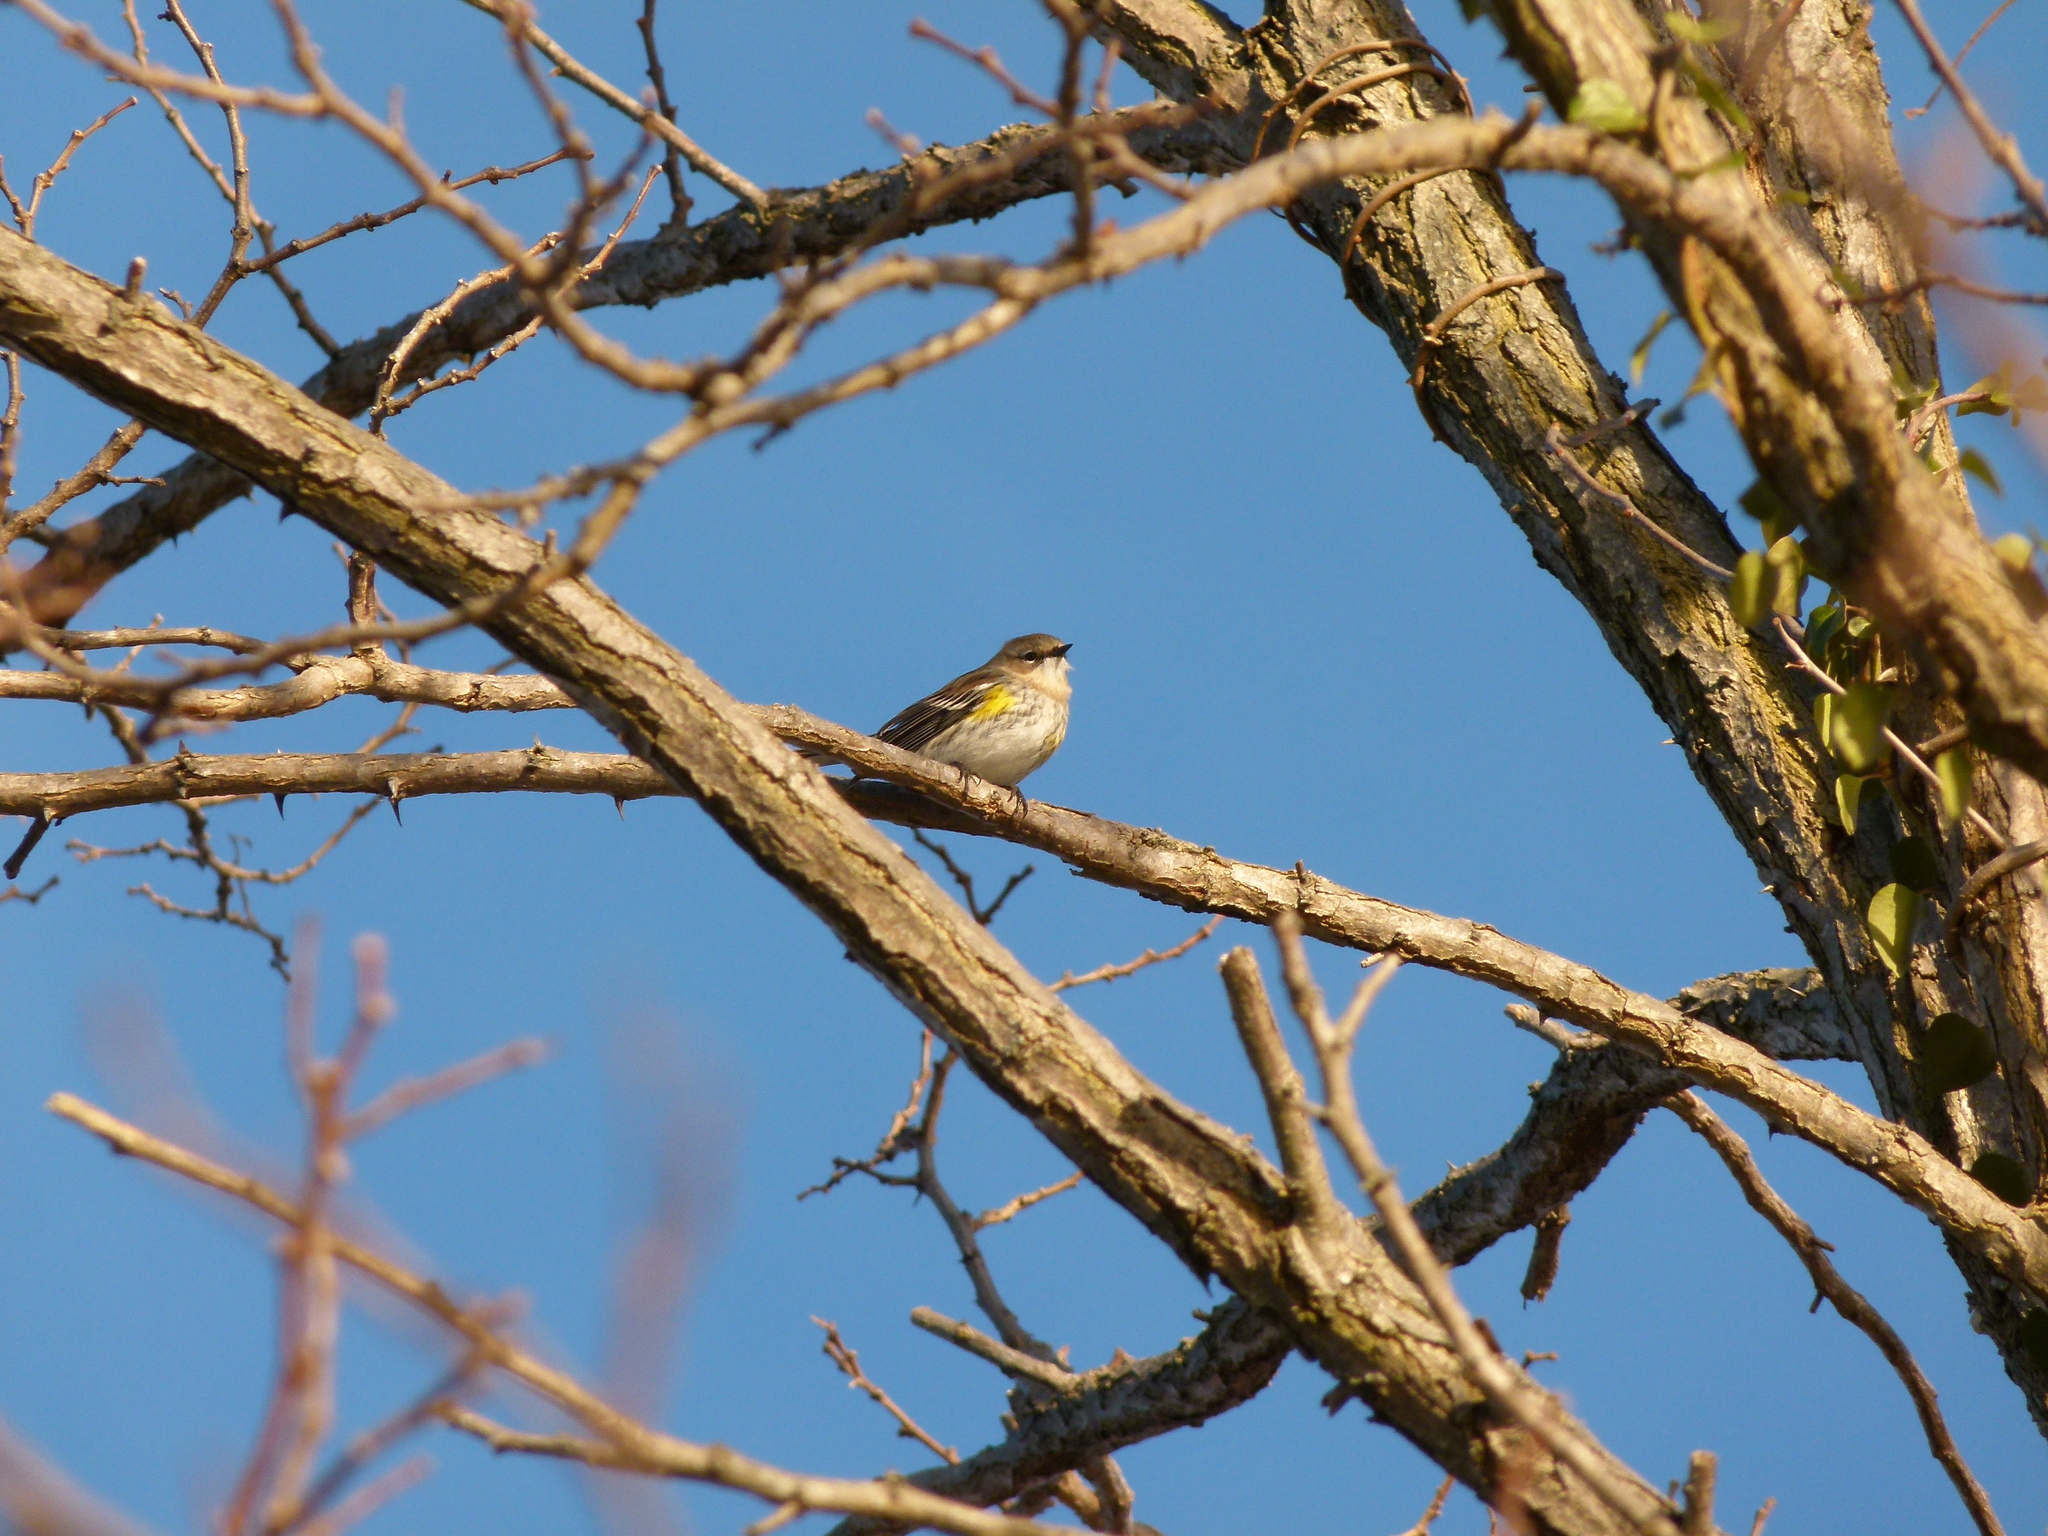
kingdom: Animalia
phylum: Chordata
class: Aves
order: Passeriformes
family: Parulidae
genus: Setophaga
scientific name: Setophaga coronata
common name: Myrtle warbler
